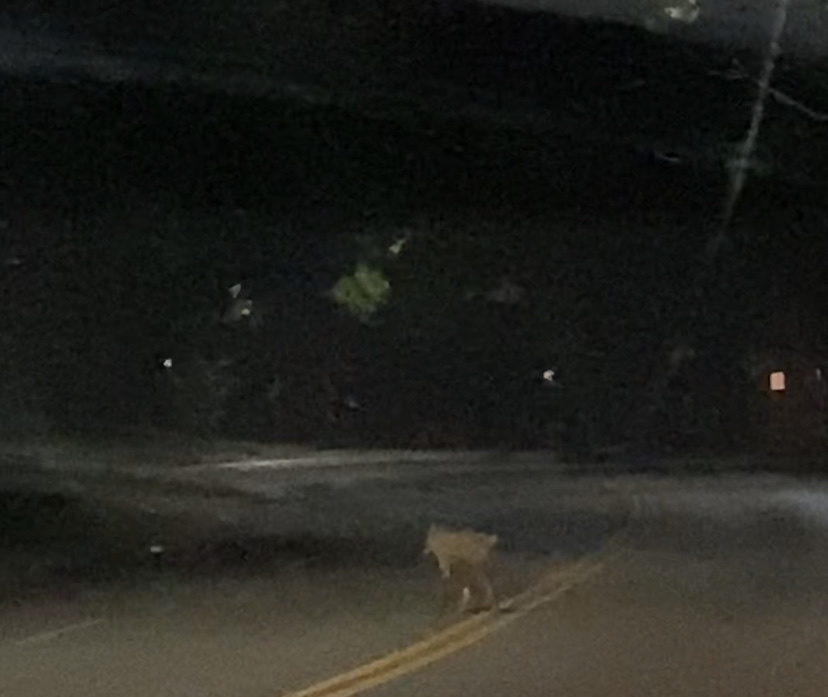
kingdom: Animalia
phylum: Chordata
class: Mammalia
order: Carnivora
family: Canidae
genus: Canis
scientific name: Canis latrans
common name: Coyote
